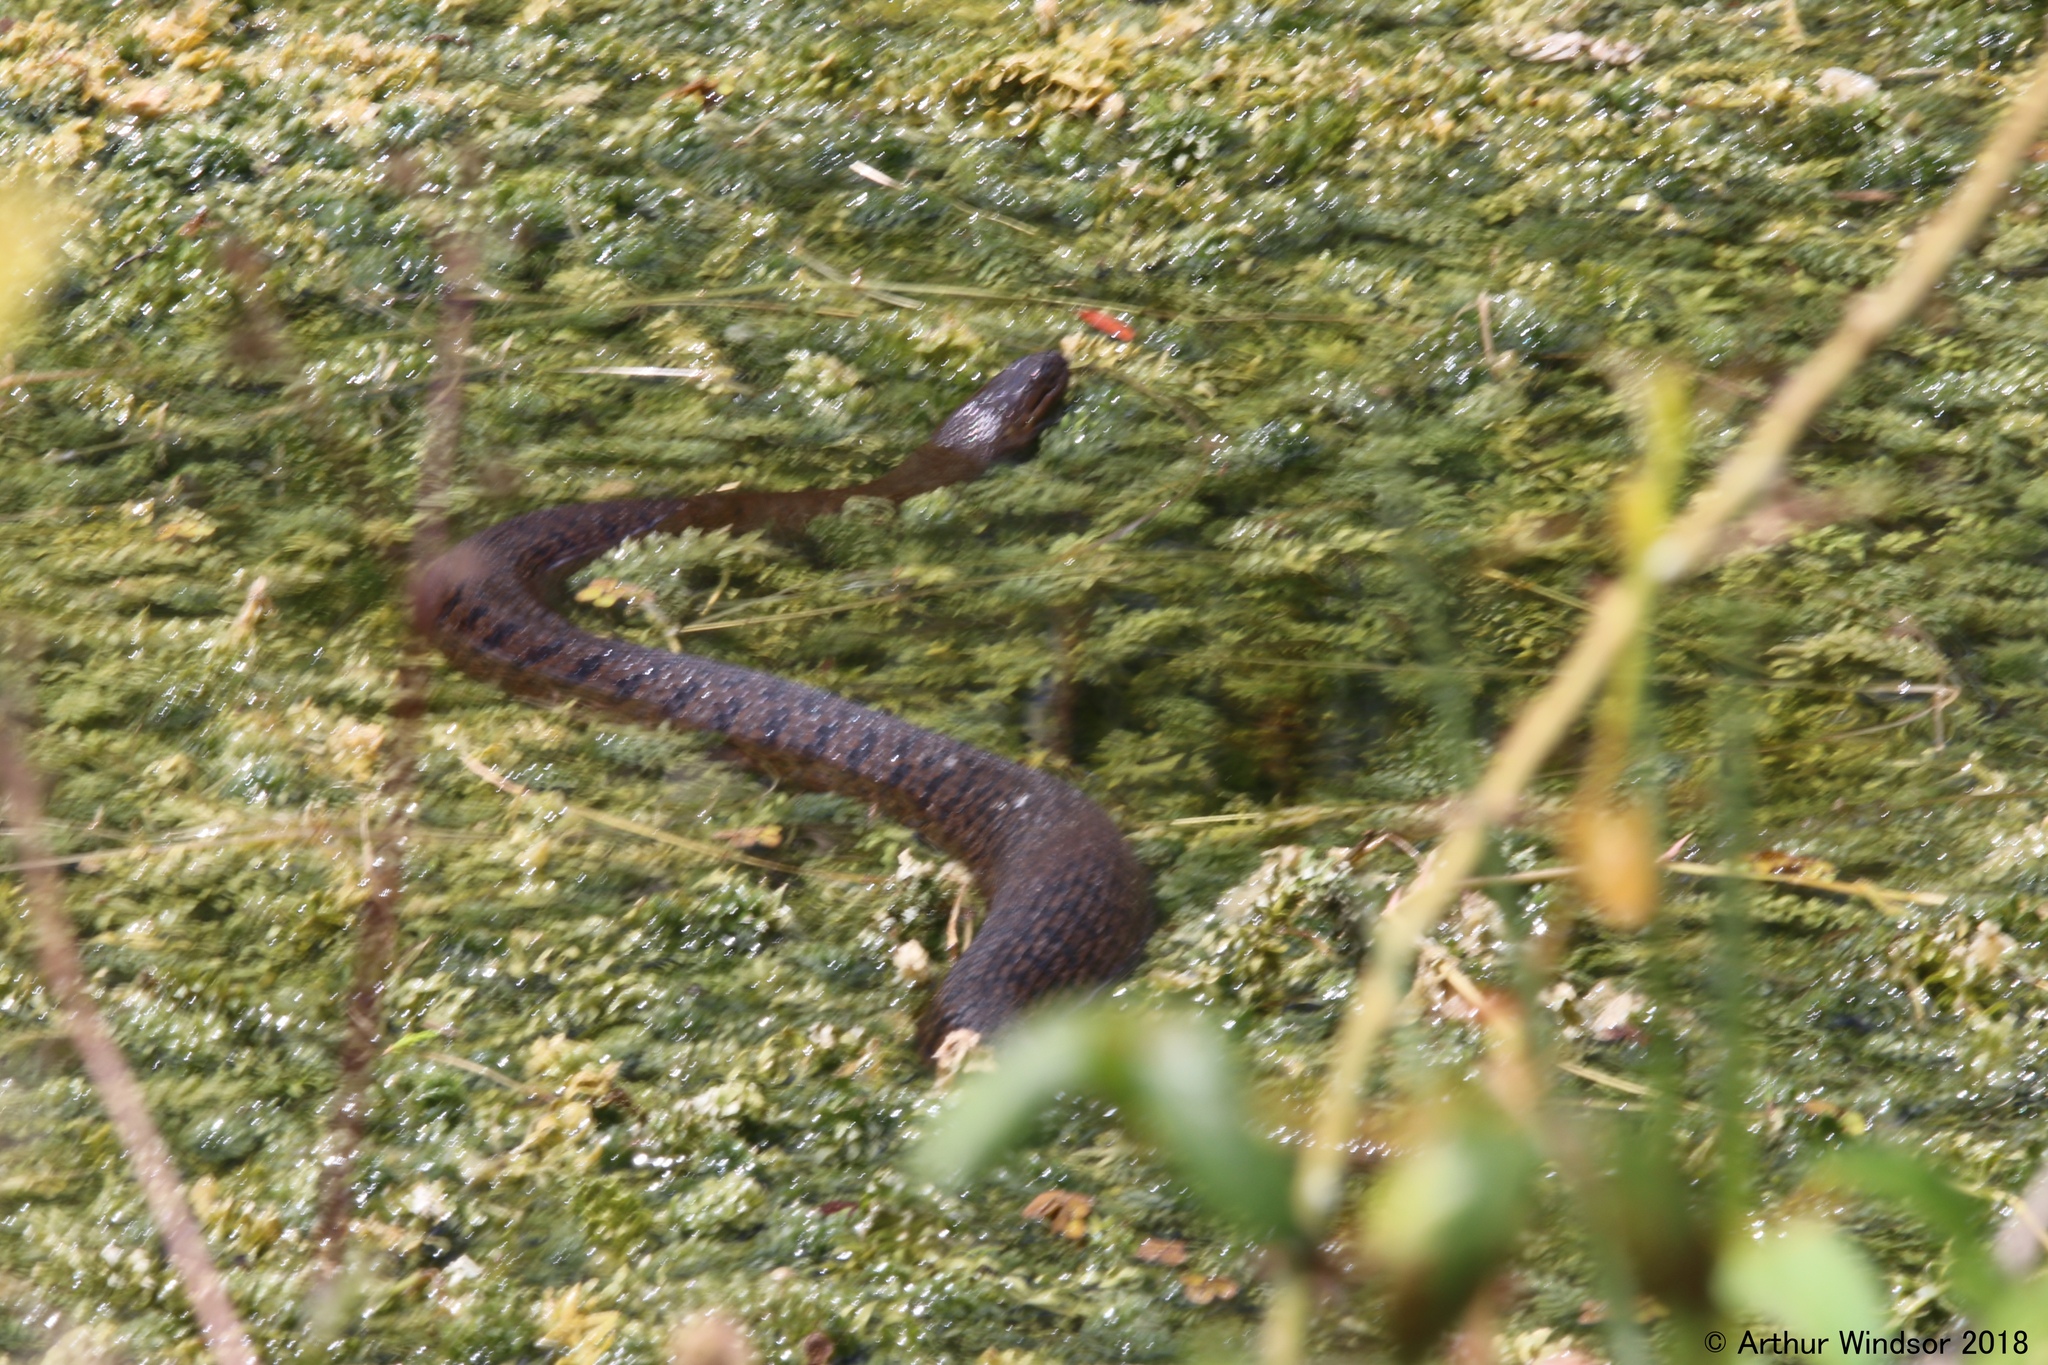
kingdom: Animalia
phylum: Chordata
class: Squamata
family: Colubridae
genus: Nerodia
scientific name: Nerodia floridana
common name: Florida green watersnake
